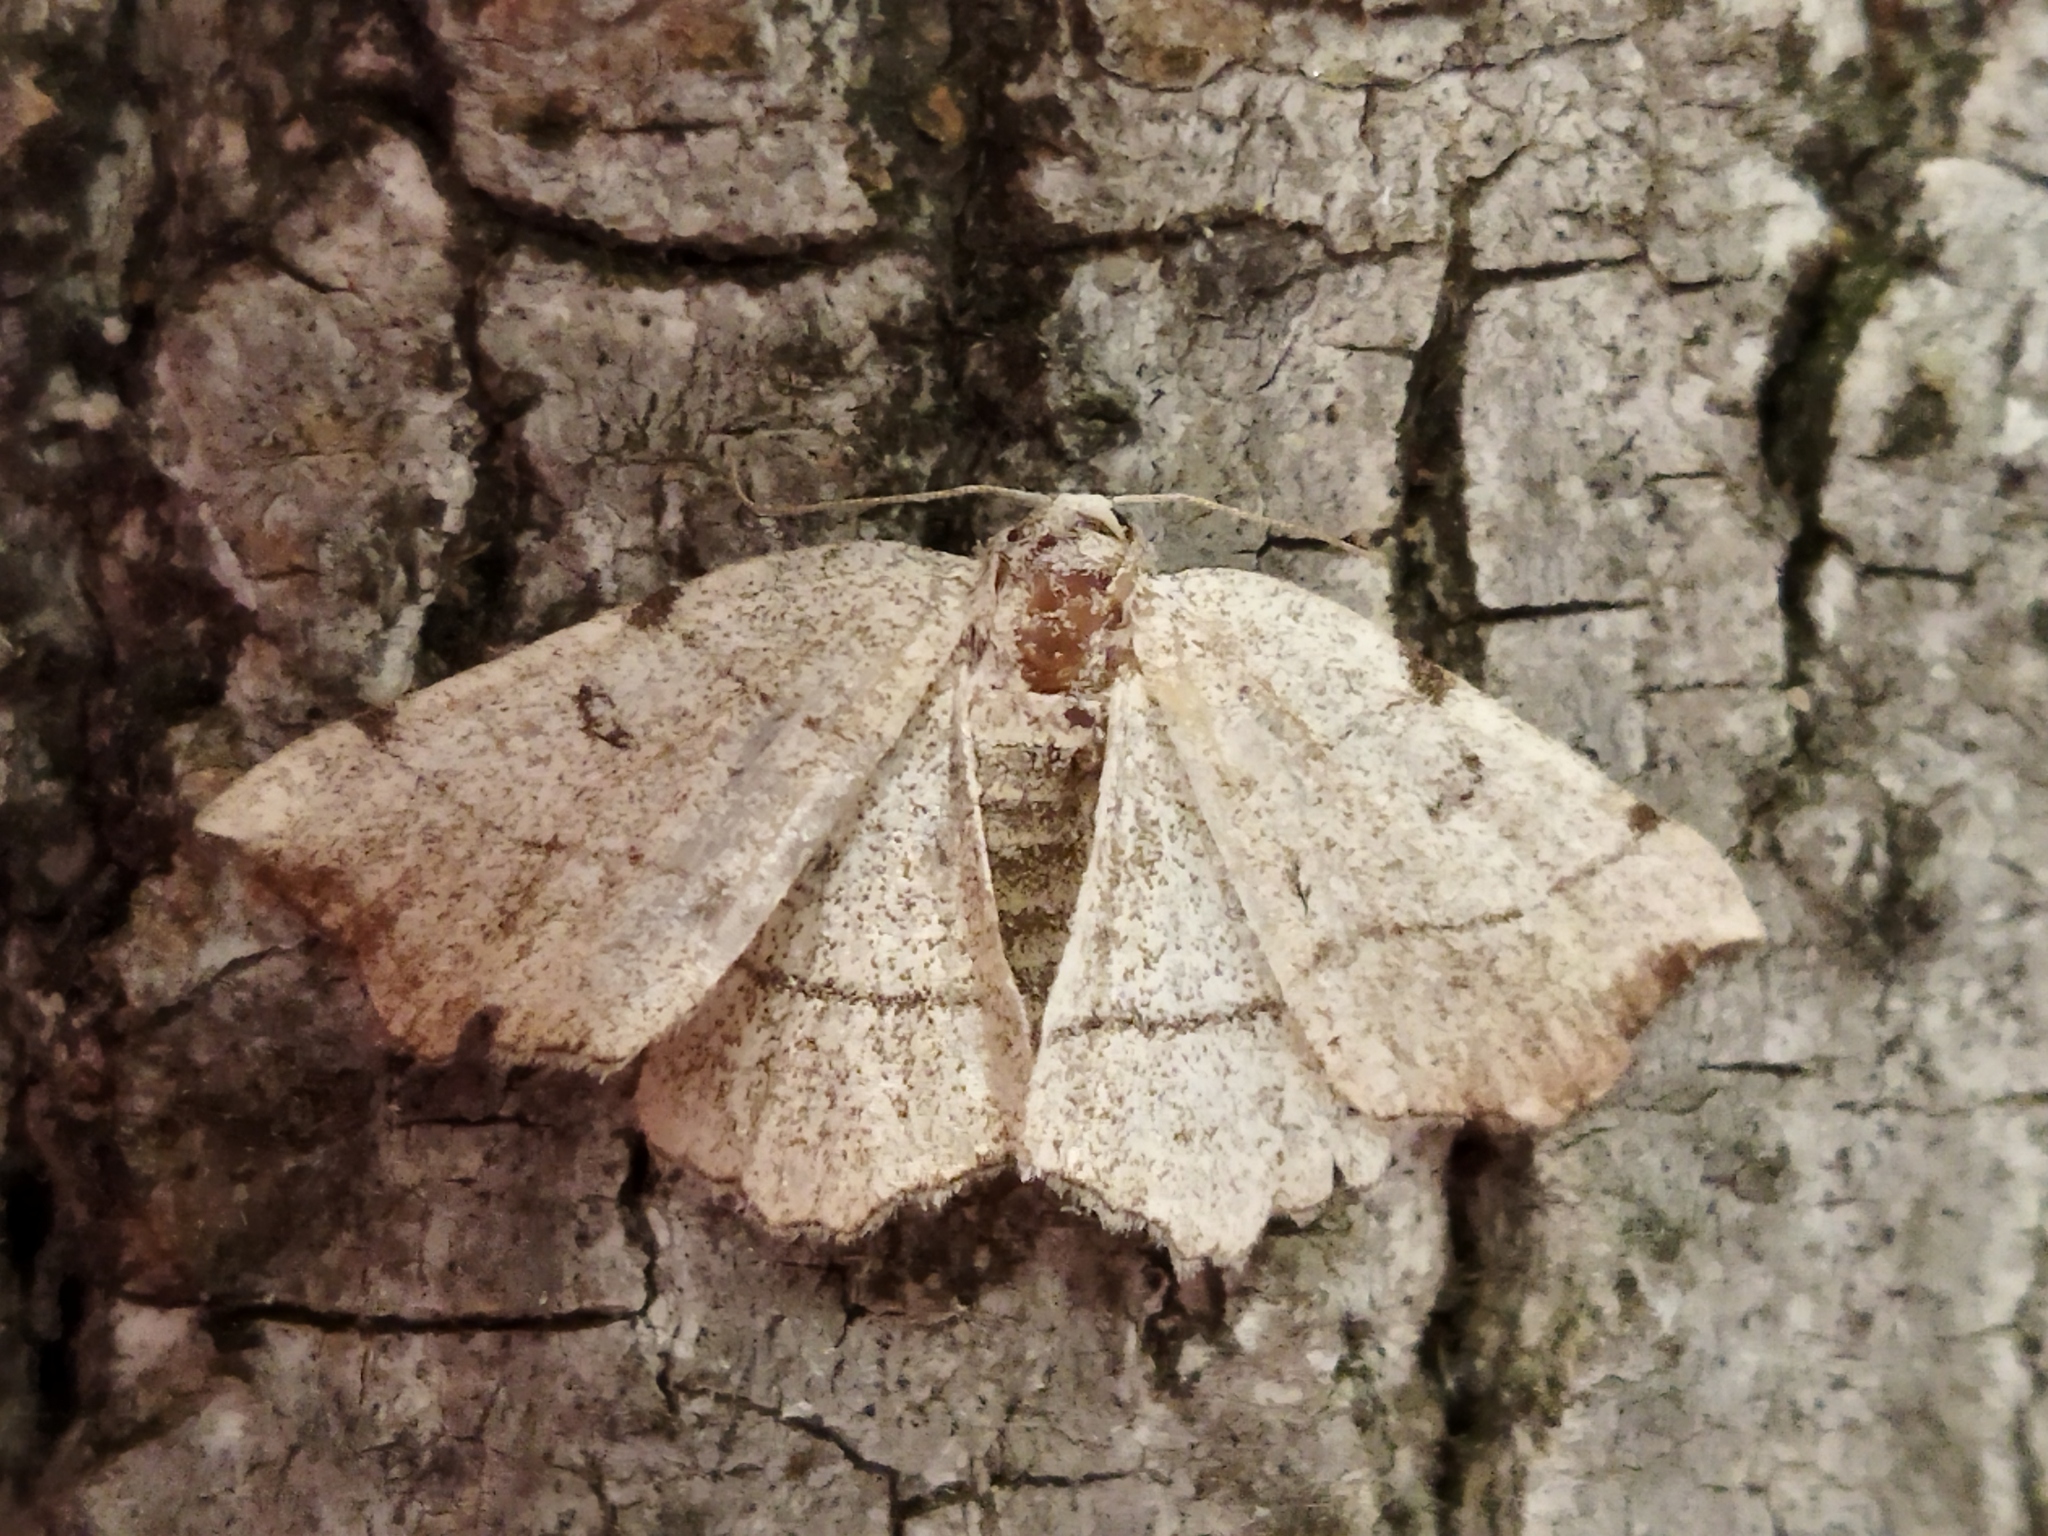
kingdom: Animalia
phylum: Arthropoda
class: Insecta
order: Lepidoptera
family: Geometridae
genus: Eilicrinia
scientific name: Eilicrinia trinotata
